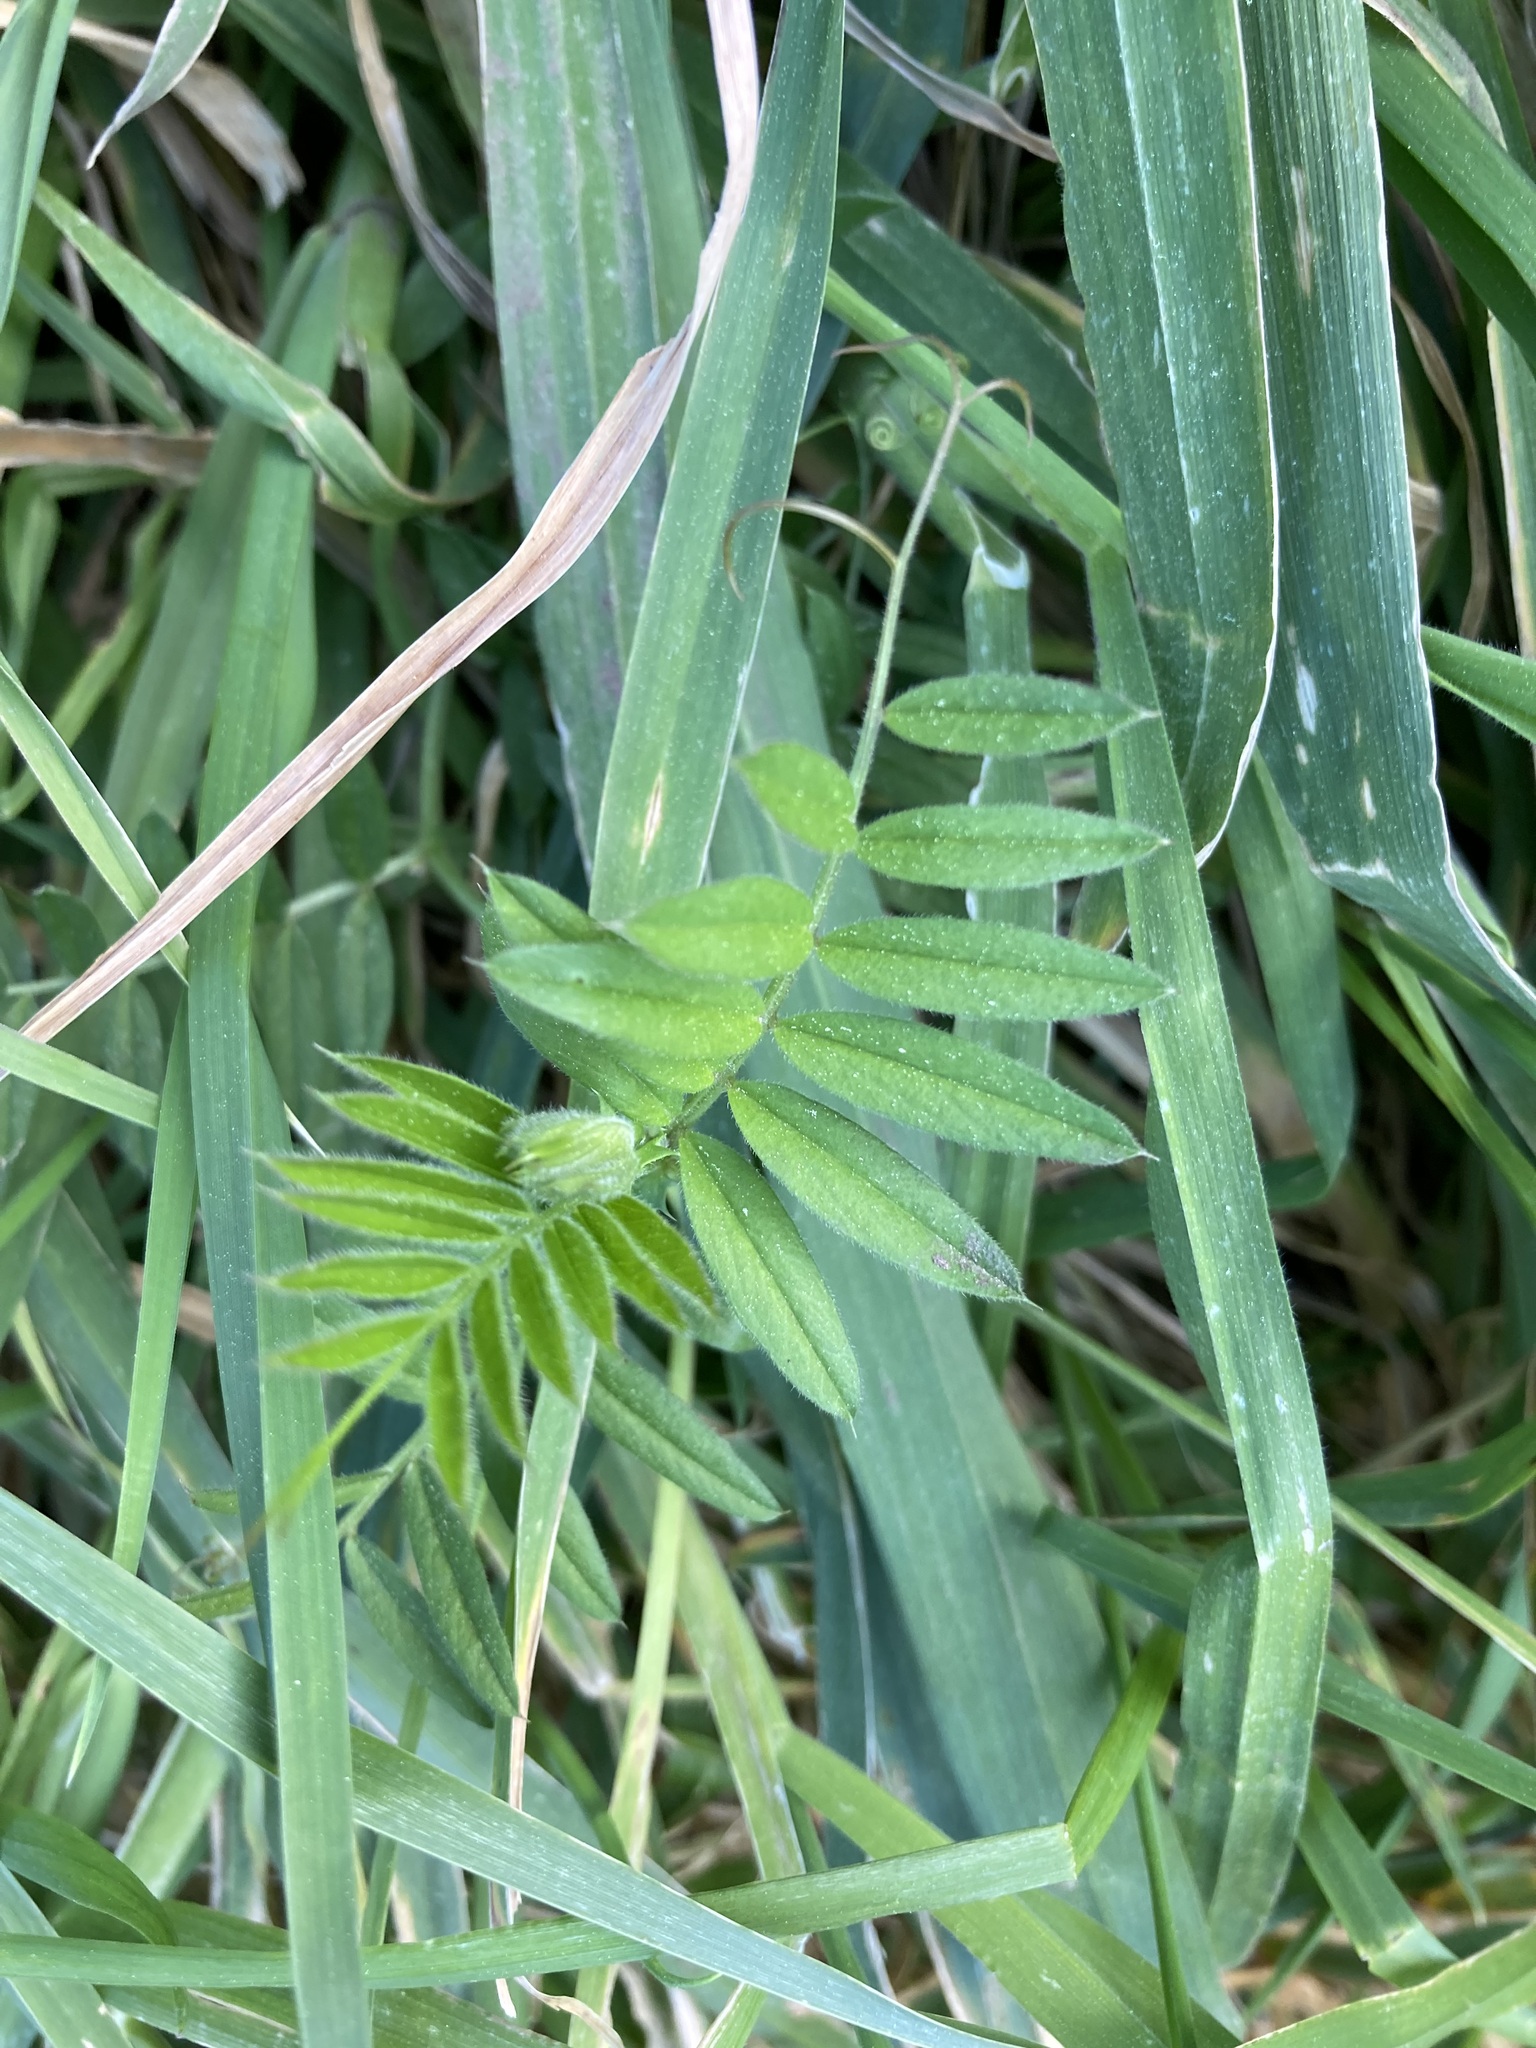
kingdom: Plantae
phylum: Tracheophyta
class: Magnoliopsida
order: Fabales
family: Fabaceae
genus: Vicia
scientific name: Vicia sativa
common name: Garden vetch
